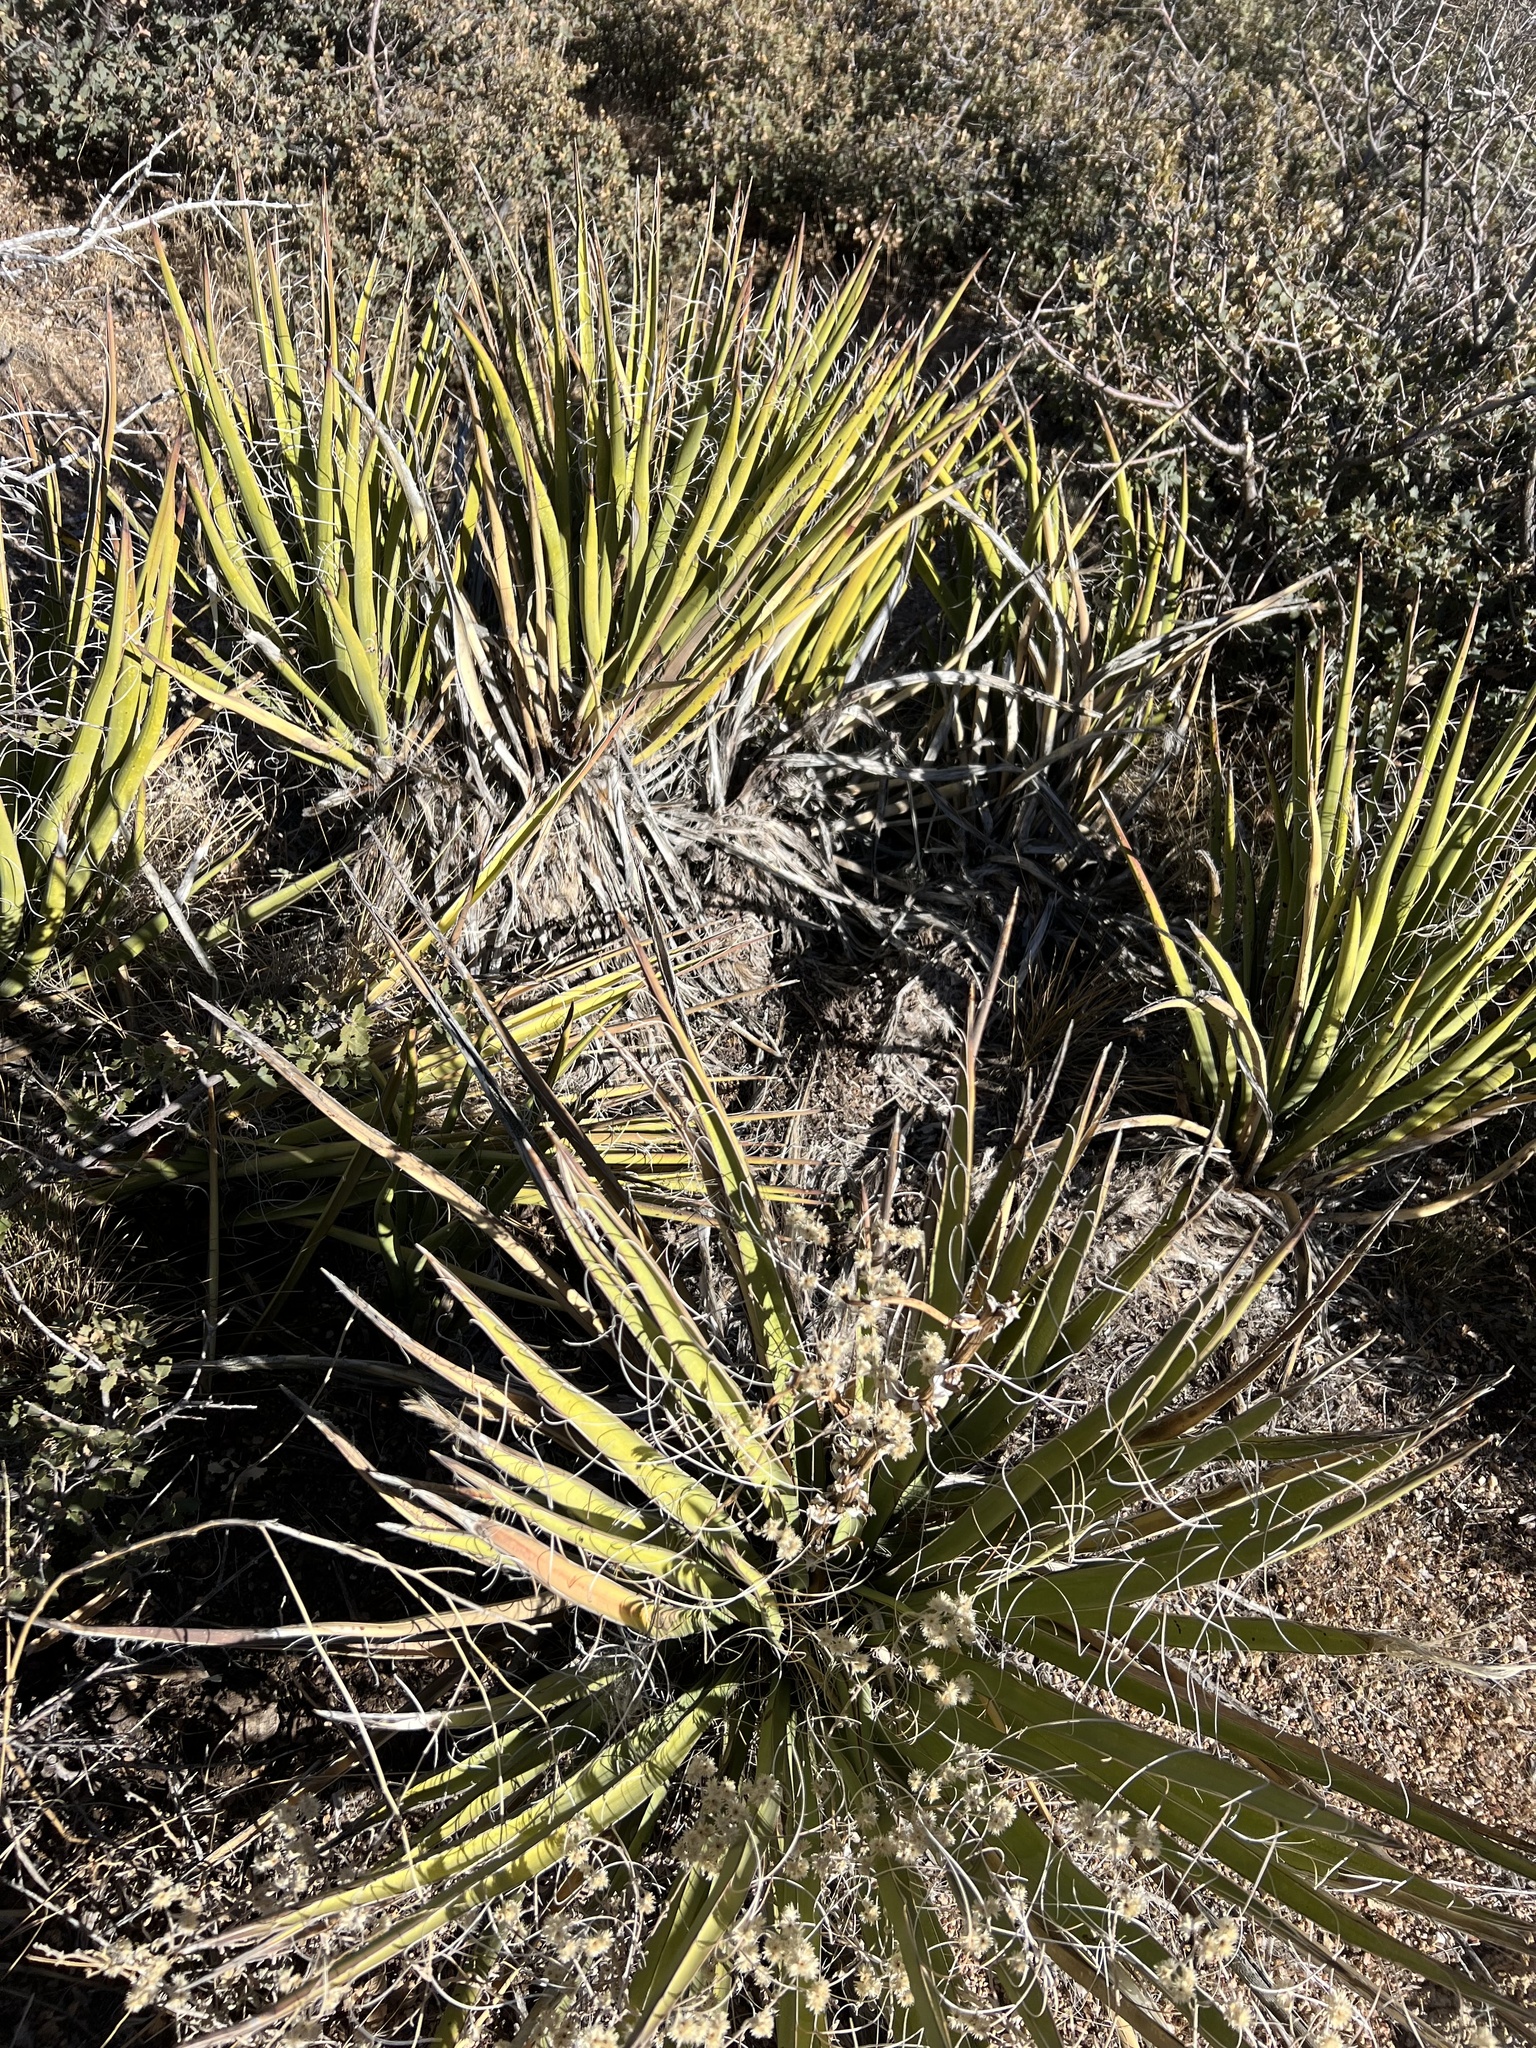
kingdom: Plantae
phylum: Tracheophyta
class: Liliopsida
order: Asparagales
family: Asparagaceae
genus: Yucca
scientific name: Yucca baccata
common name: Banana yucca
